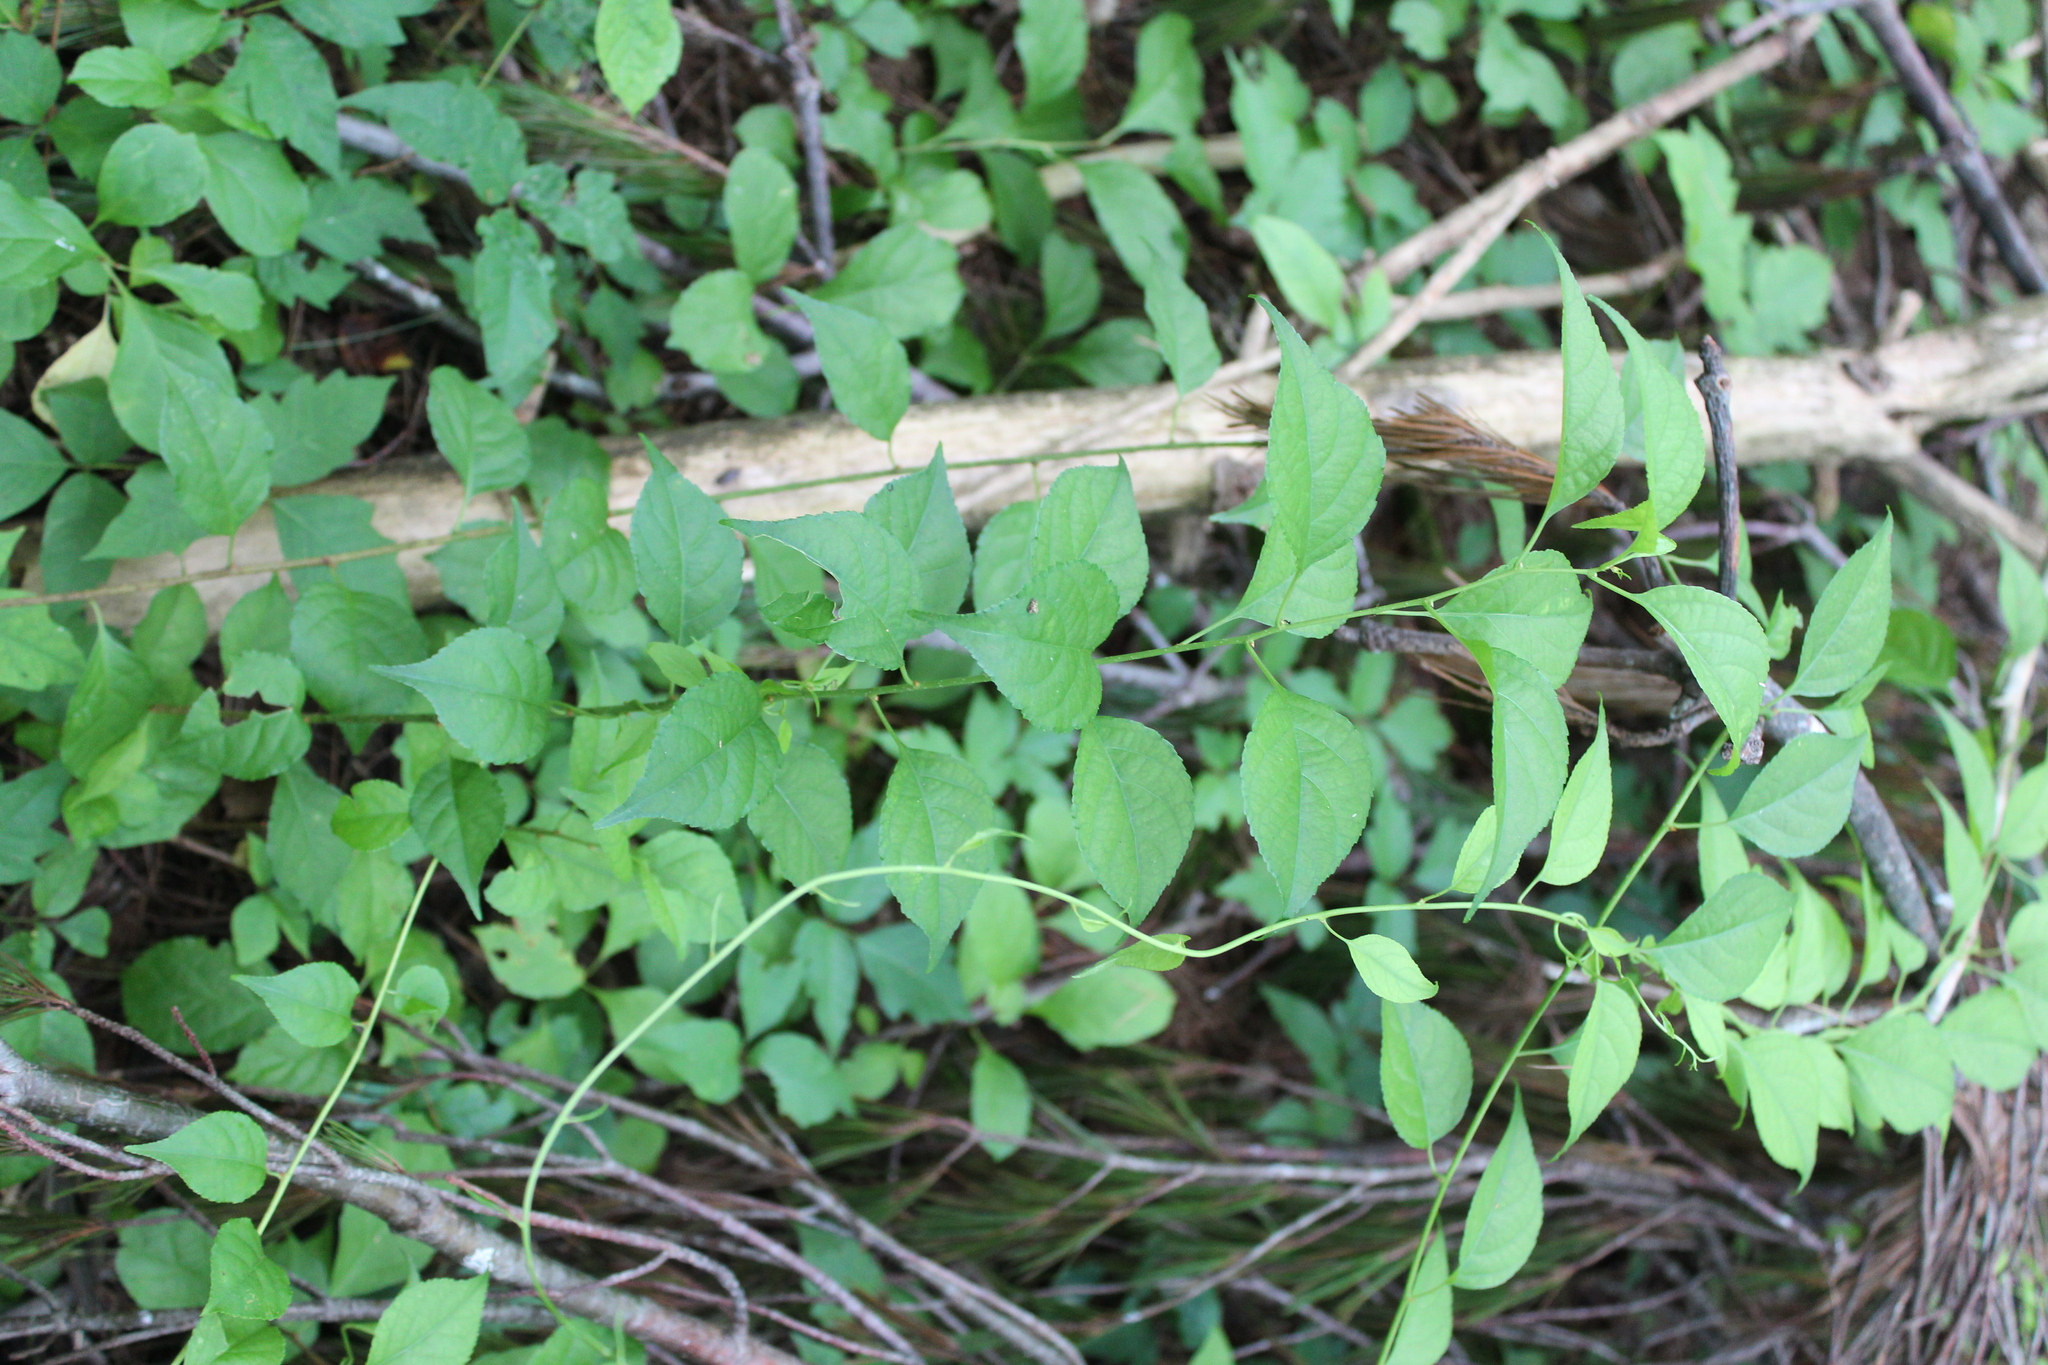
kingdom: Plantae
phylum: Tracheophyta
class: Magnoliopsida
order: Celastrales
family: Celastraceae
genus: Celastrus
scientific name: Celastrus orbiculatus
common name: Oriental bittersweet
